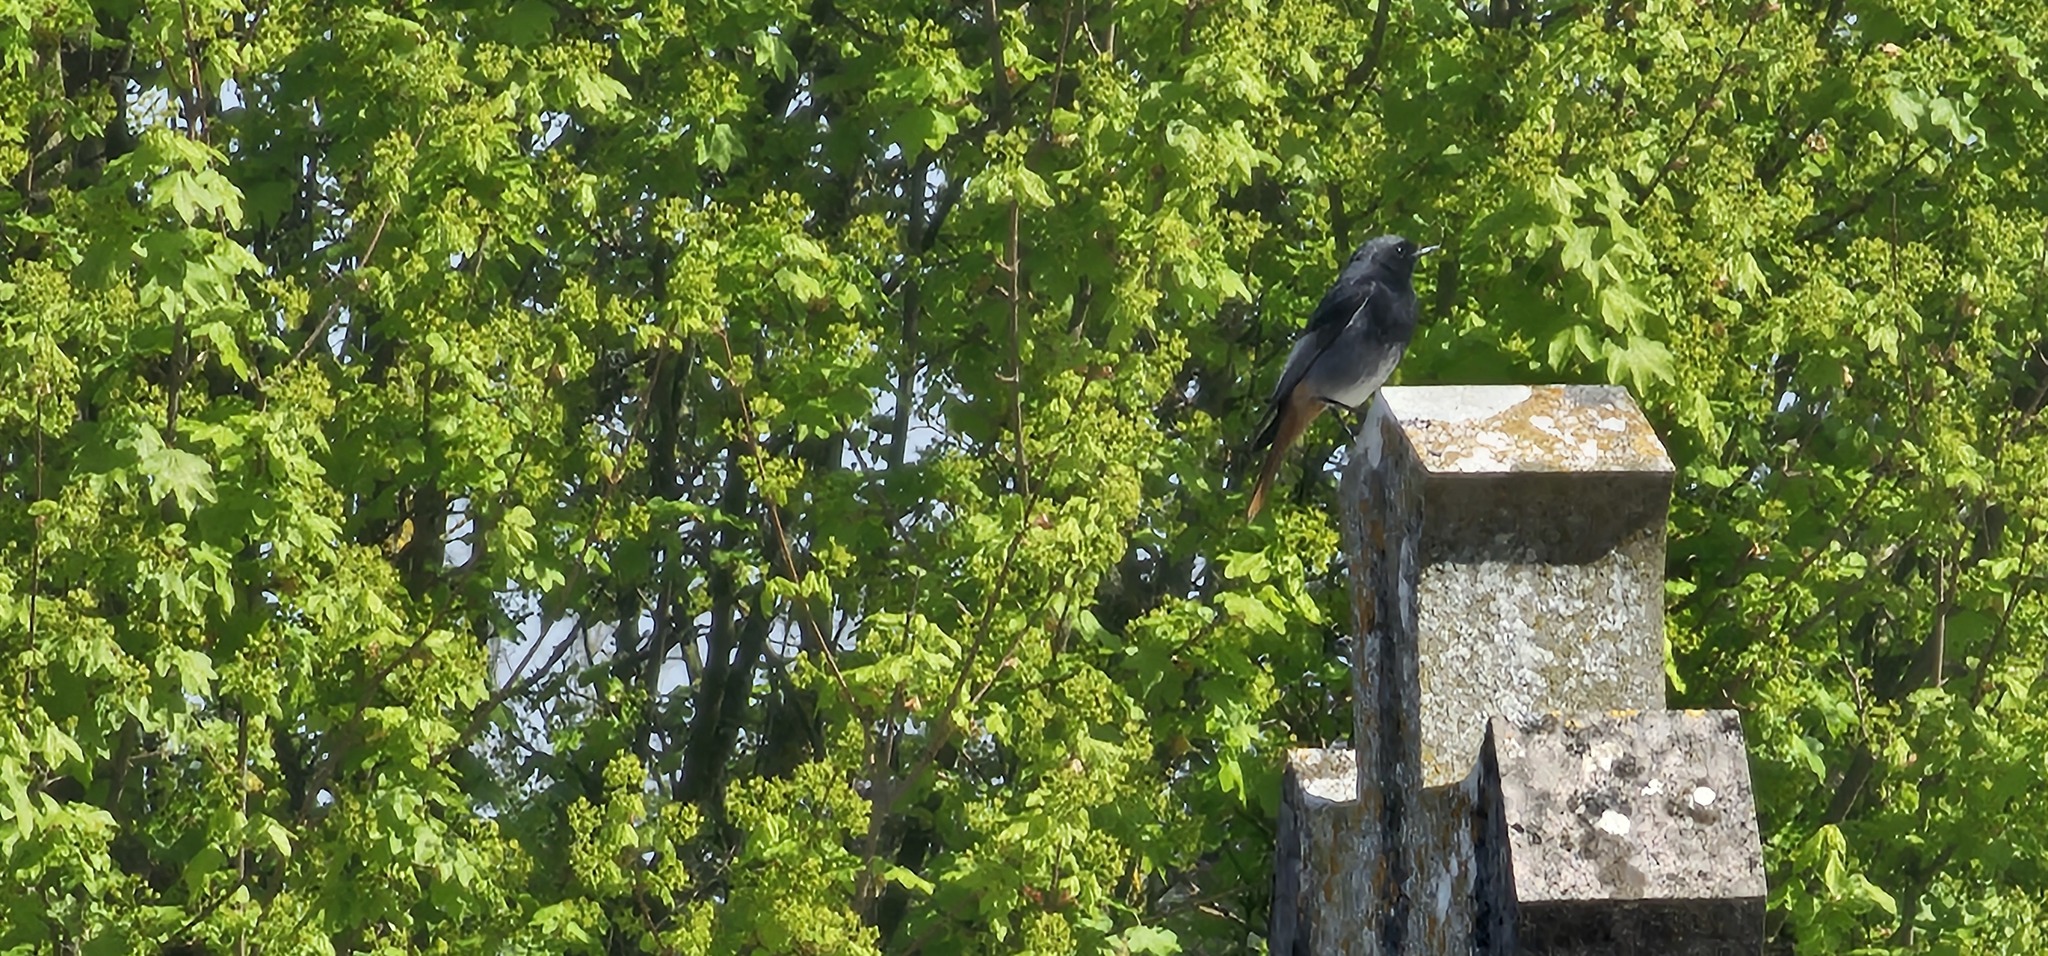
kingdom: Animalia
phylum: Chordata
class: Aves
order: Passeriformes
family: Muscicapidae
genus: Phoenicurus
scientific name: Phoenicurus ochruros
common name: Black redstart
